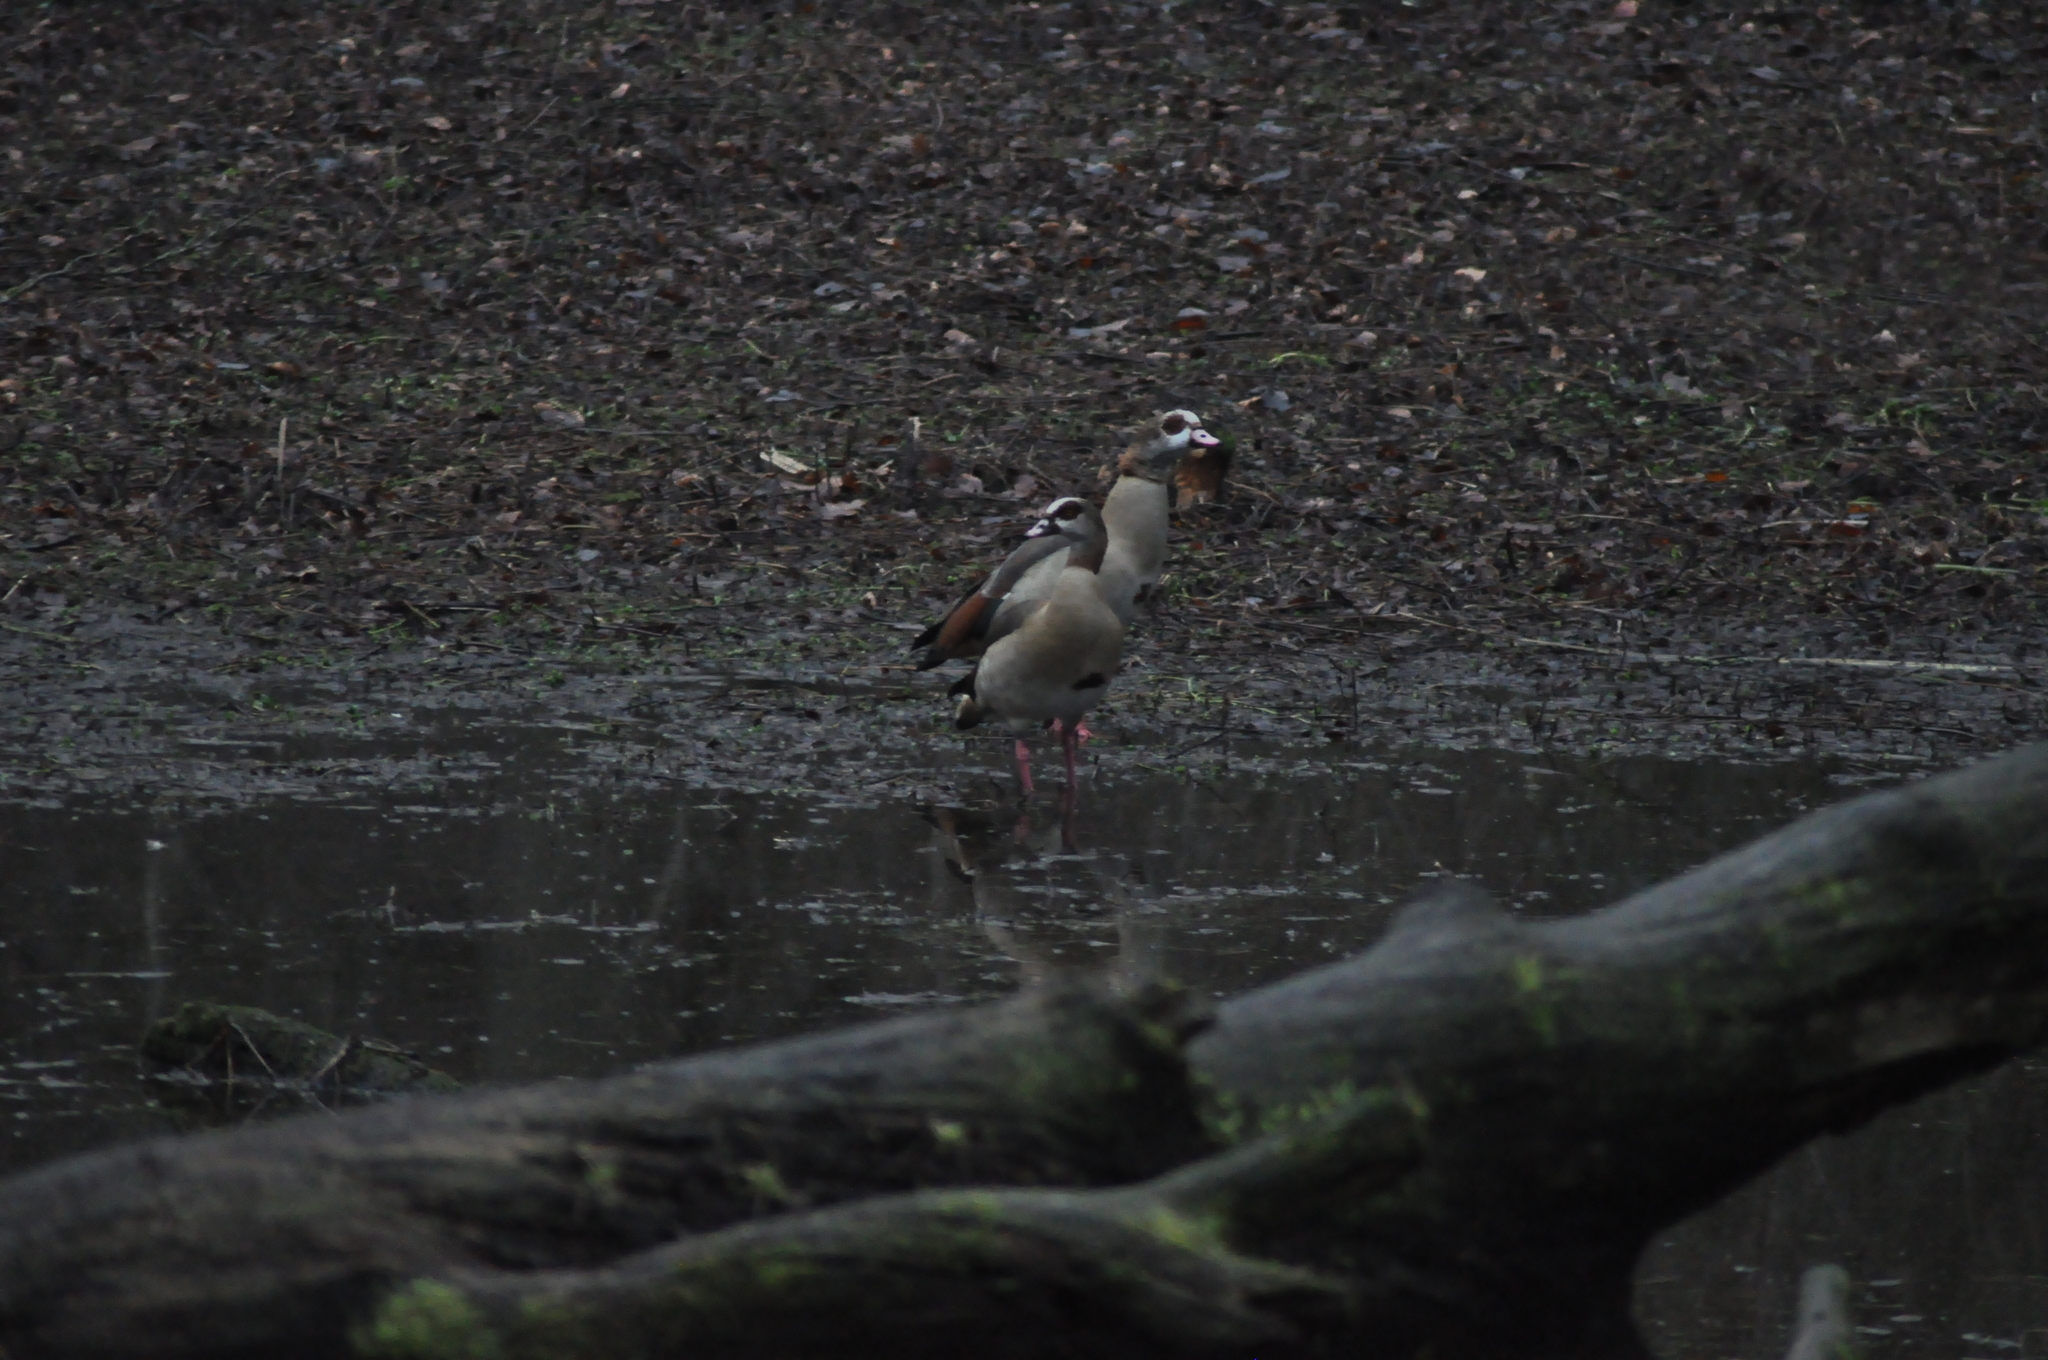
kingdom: Animalia
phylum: Chordata
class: Aves
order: Anseriformes
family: Anatidae
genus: Alopochen
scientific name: Alopochen aegyptiaca
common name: Egyptian goose
